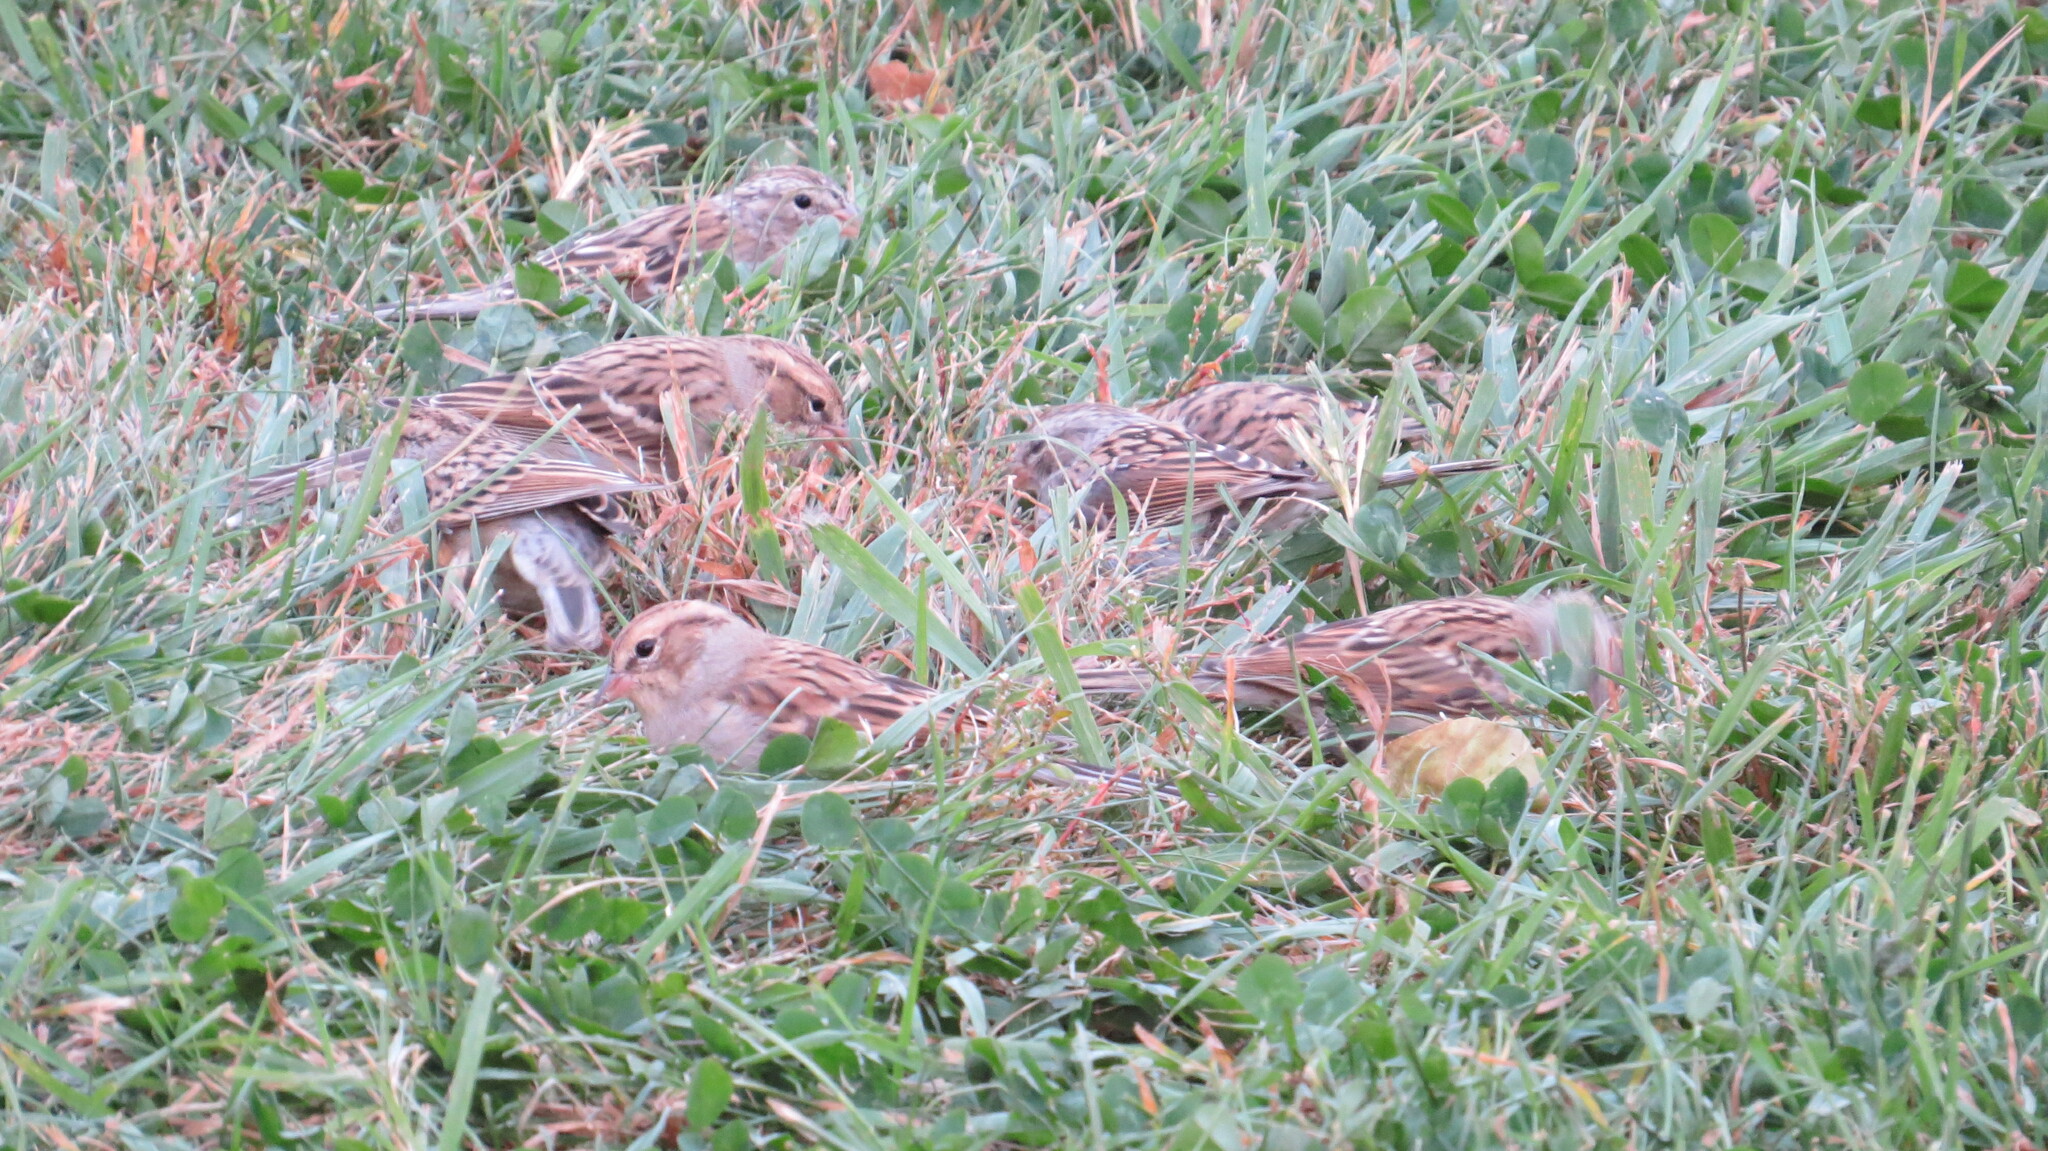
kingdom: Animalia
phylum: Chordata
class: Aves
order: Passeriformes
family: Passerellidae
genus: Spizella
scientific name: Spizella passerina
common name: Chipping sparrow
